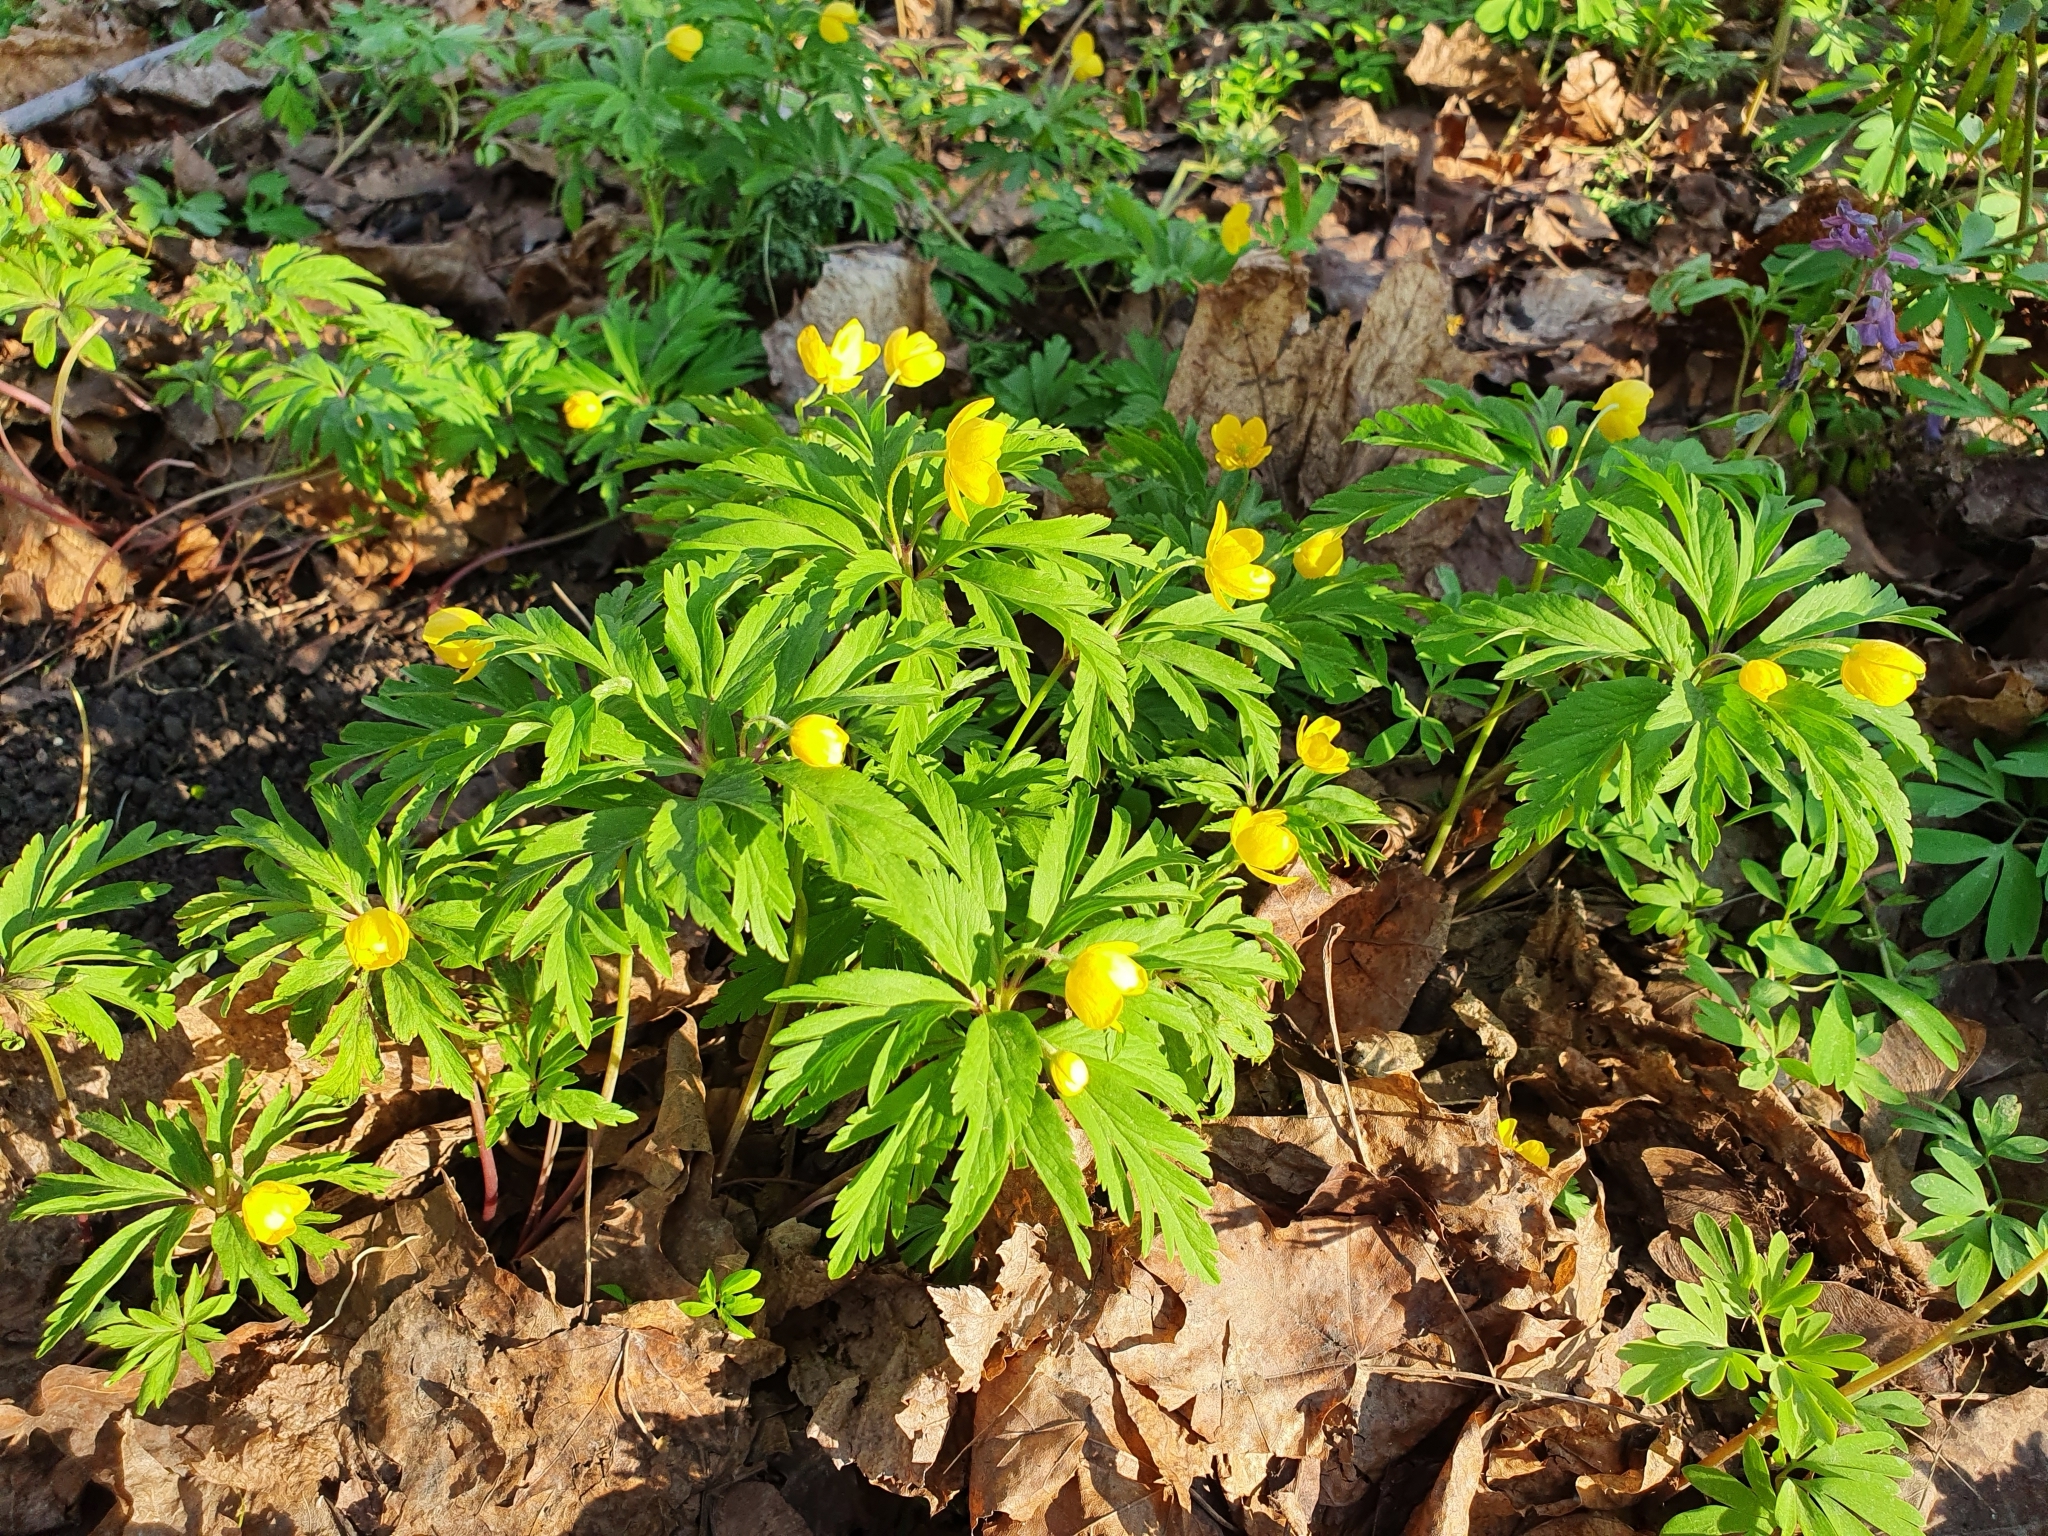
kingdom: Plantae
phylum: Tracheophyta
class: Magnoliopsida
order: Ranunculales
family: Ranunculaceae
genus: Anemone
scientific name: Anemone ranunculoides
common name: Yellow anemone
